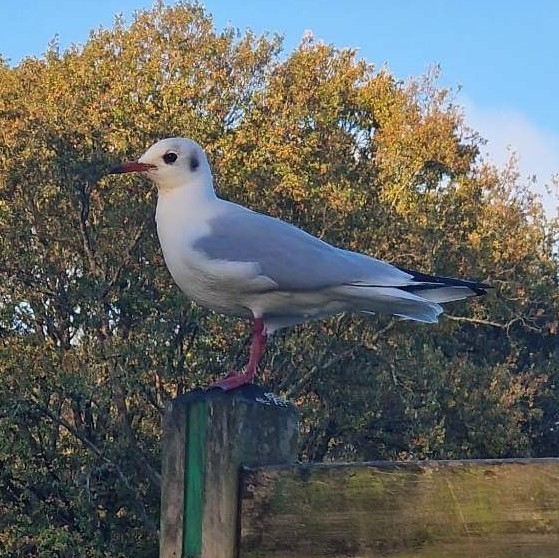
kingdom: Animalia
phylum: Chordata
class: Aves
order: Charadriiformes
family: Laridae
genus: Chroicocephalus
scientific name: Chroicocephalus ridibundus
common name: Black-headed gull
